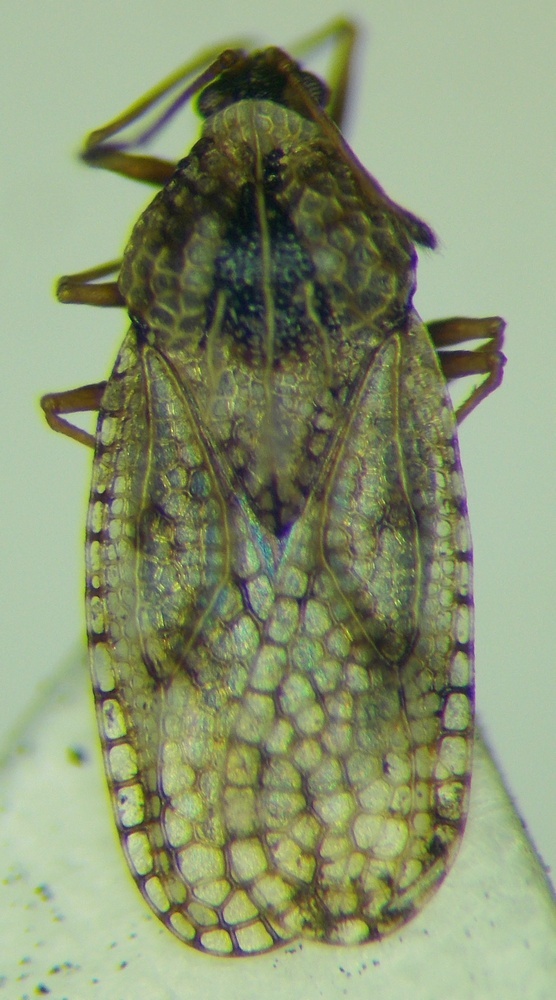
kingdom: Animalia
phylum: Arthropoda
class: Insecta
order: Hemiptera
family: Tingidae
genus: Dictyla
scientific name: Dictyla nassata
